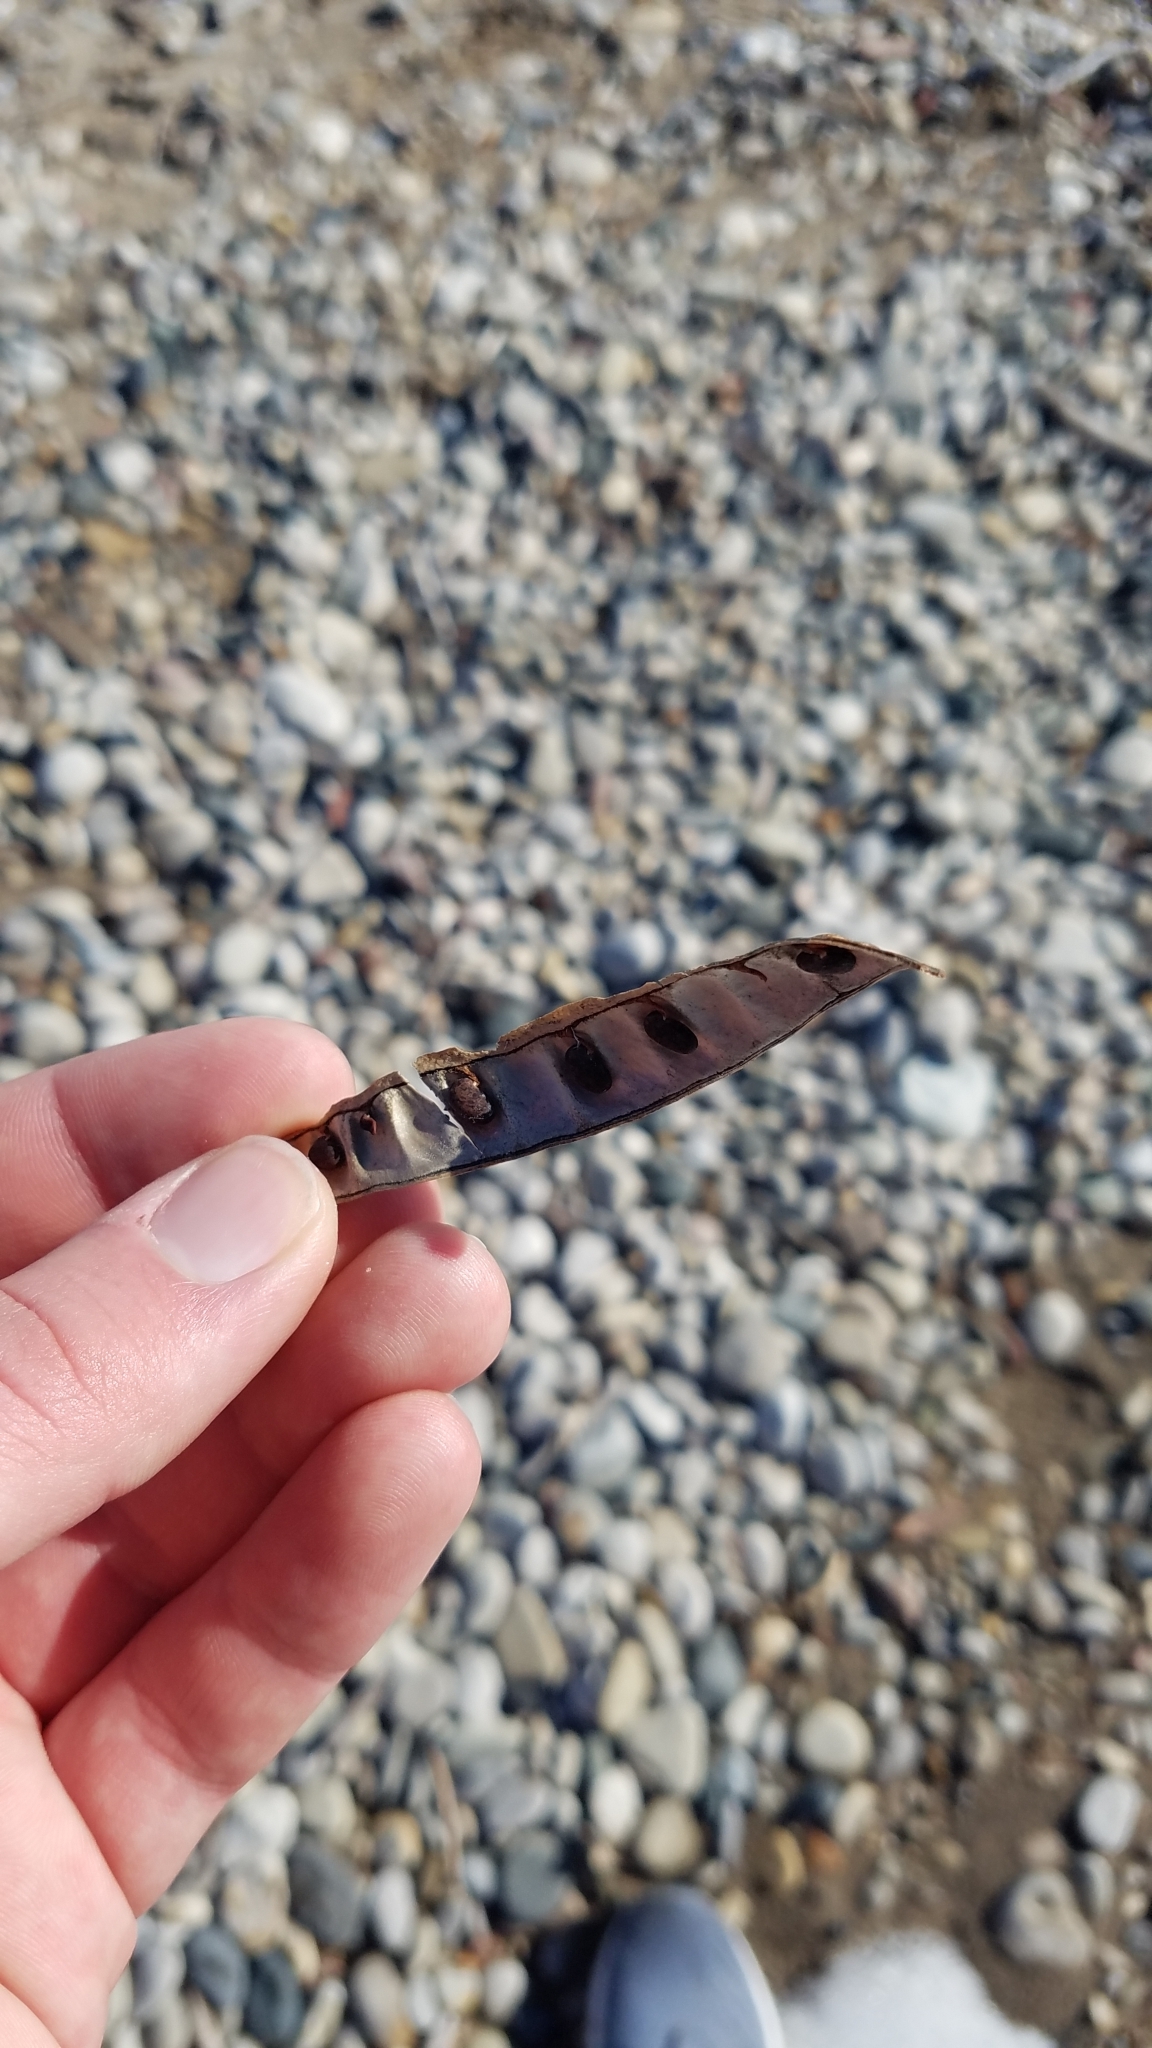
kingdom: Plantae
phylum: Tracheophyta
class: Magnoliopsida
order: Fabales
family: Fabaceae
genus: Robinia
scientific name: Robinia pseudoacacia
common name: Black locust
